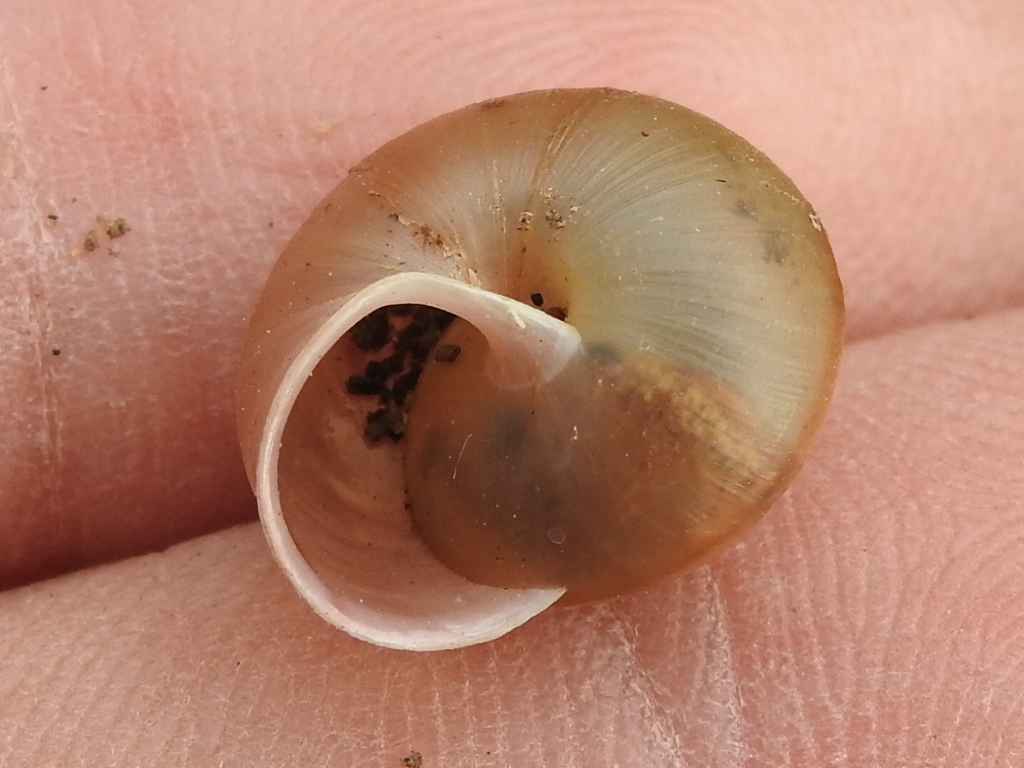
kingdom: Animalia
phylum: Mollusca
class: Gastropoda
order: Stylommatophora
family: Camaenidae
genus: Bradybaena
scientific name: Bradybaena similaris
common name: Asian trampsnail
